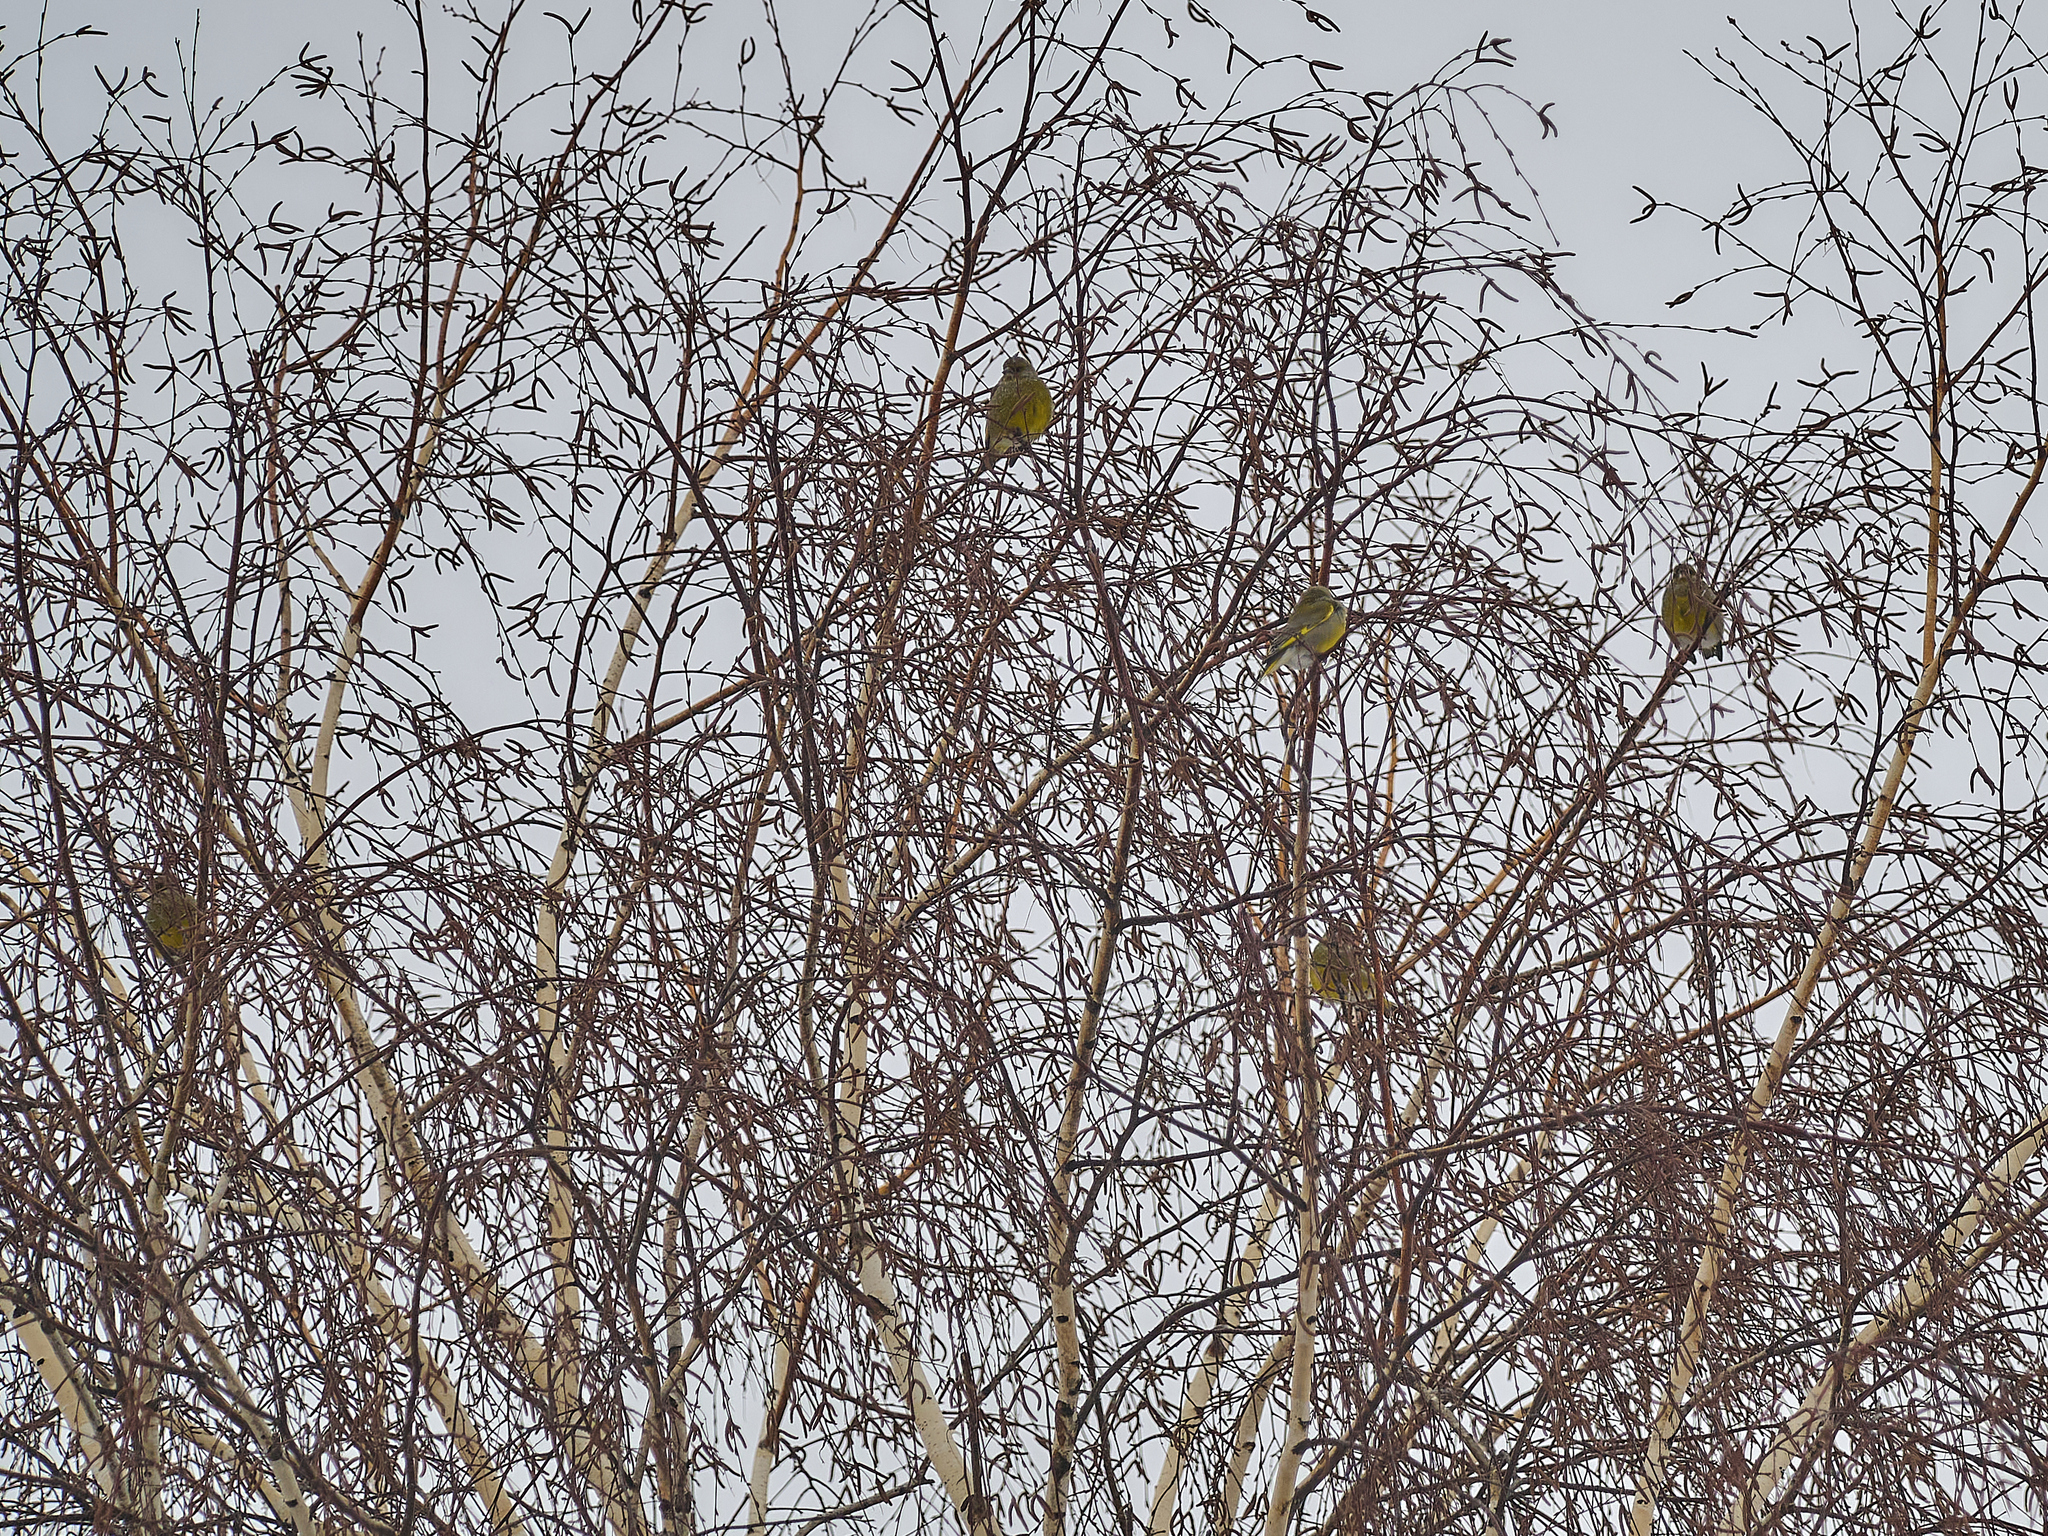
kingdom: Plantae
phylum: Tracheophyta
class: Liliopsida
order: Poales
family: Poaceae
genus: Chloris
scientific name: Chloris chloris
